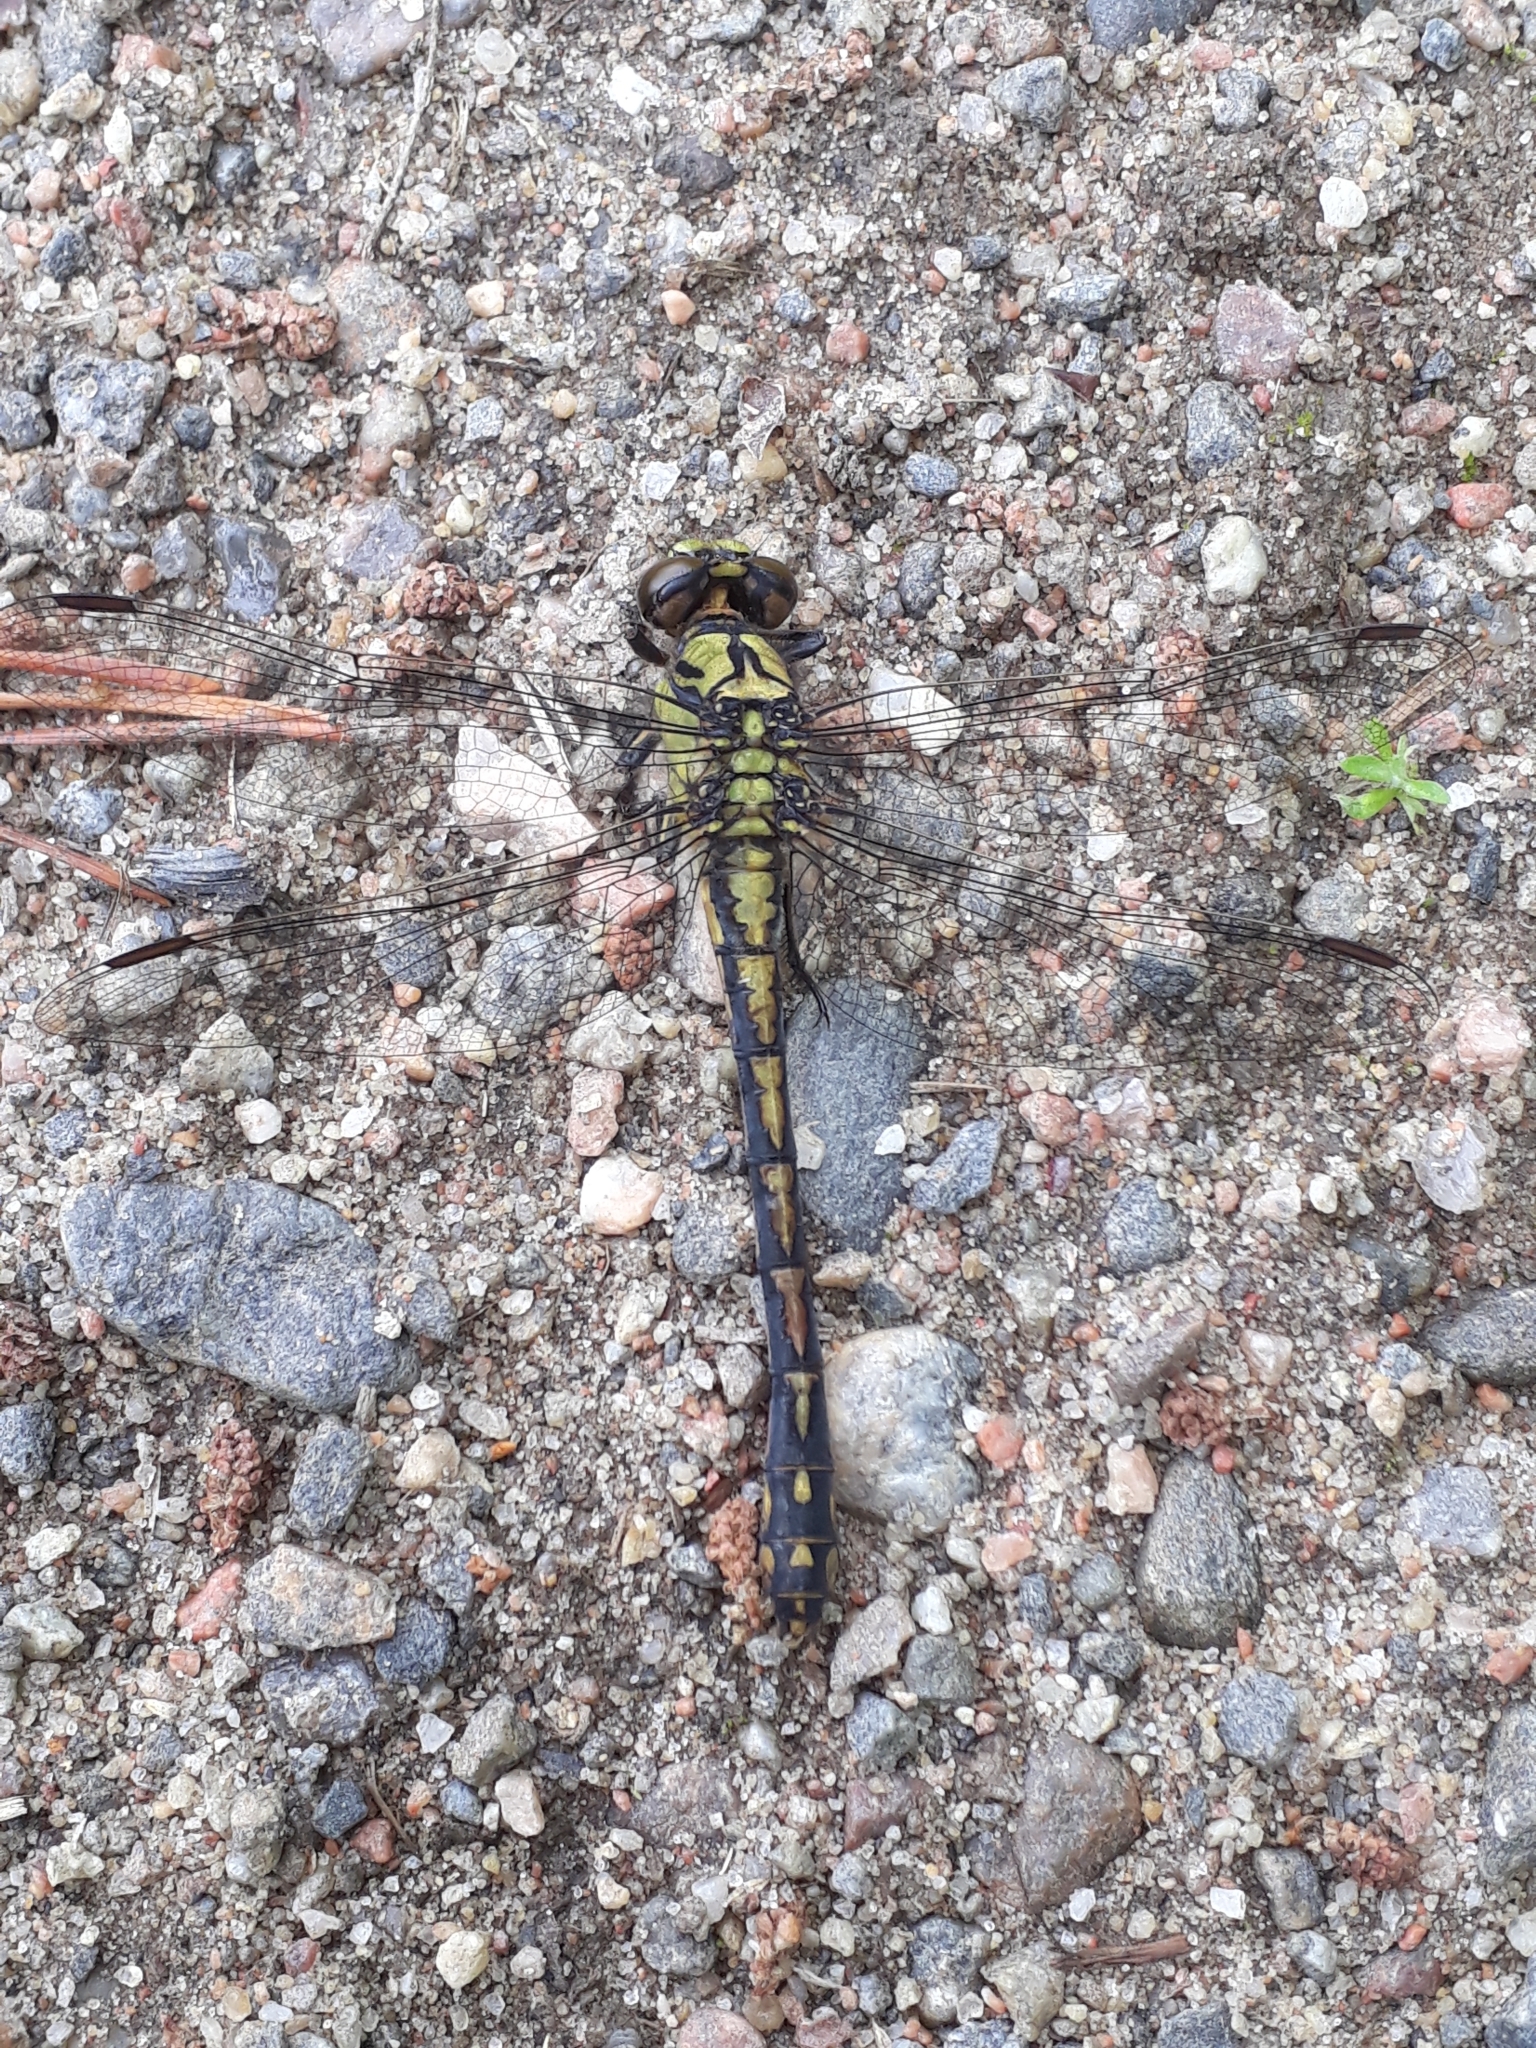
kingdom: Animalia
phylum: Arthropoda
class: Insecta
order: Odonata
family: Gomphidae
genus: Ophiogomphus
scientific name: Ophiogomphus cecilia
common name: Green snaketail
